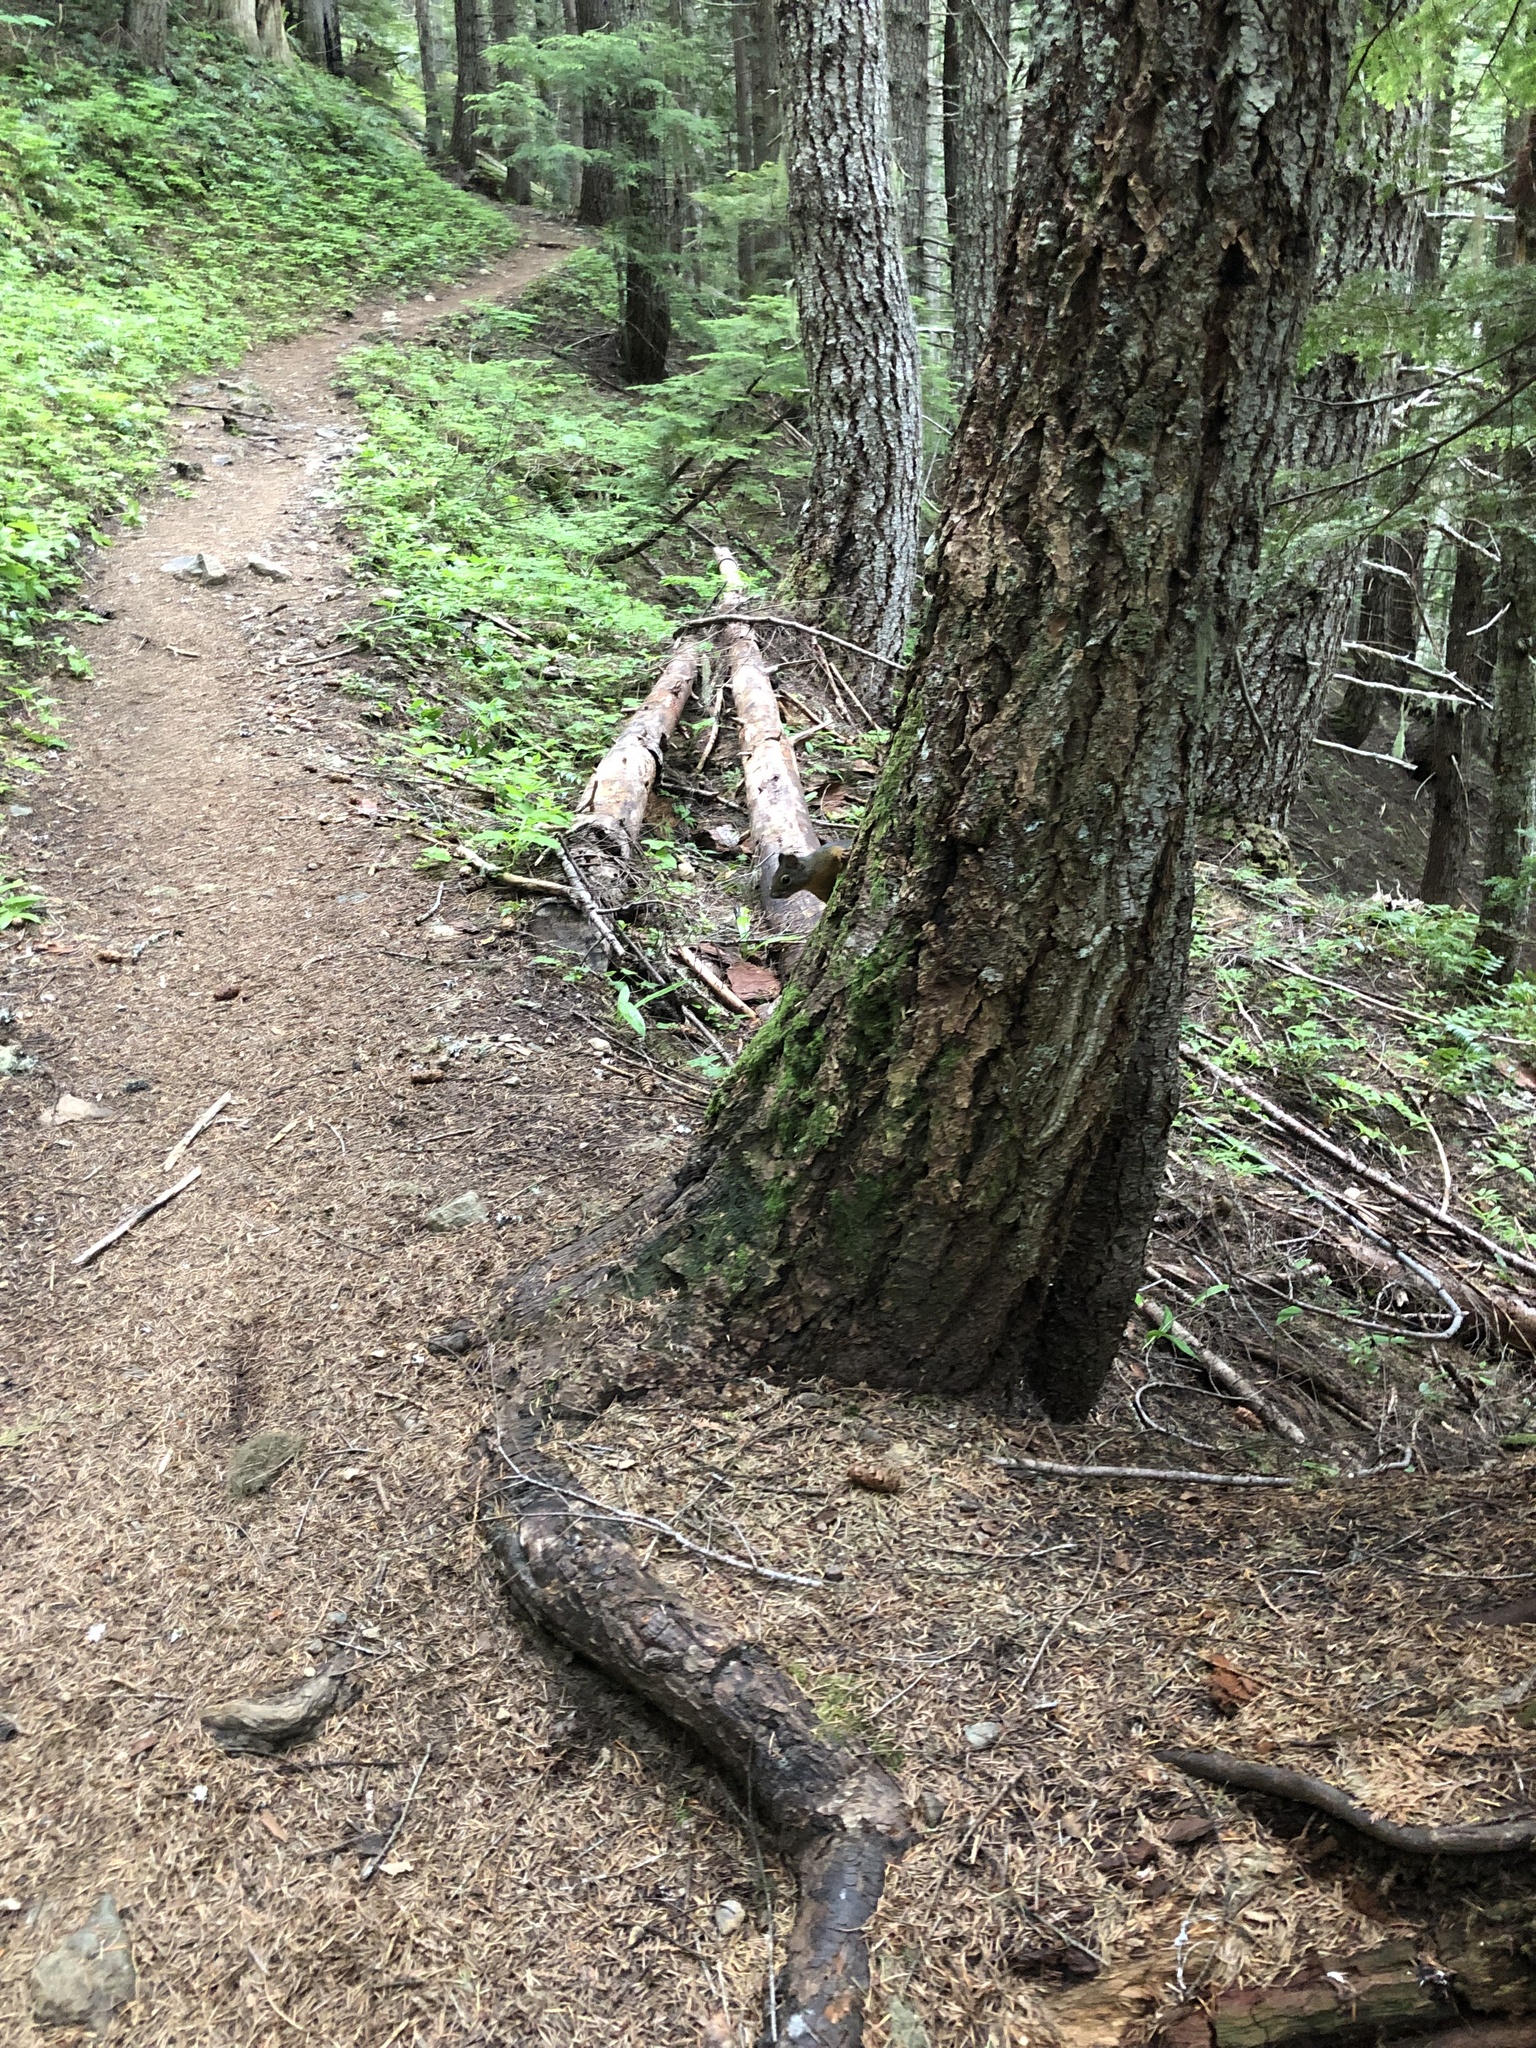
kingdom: Animalia
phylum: Chordata
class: Mammalia
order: Rodentia
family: Sciuridae
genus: Tamiasciurus
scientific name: Tamiasciurus douglasii
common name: Douglas's squirrel
